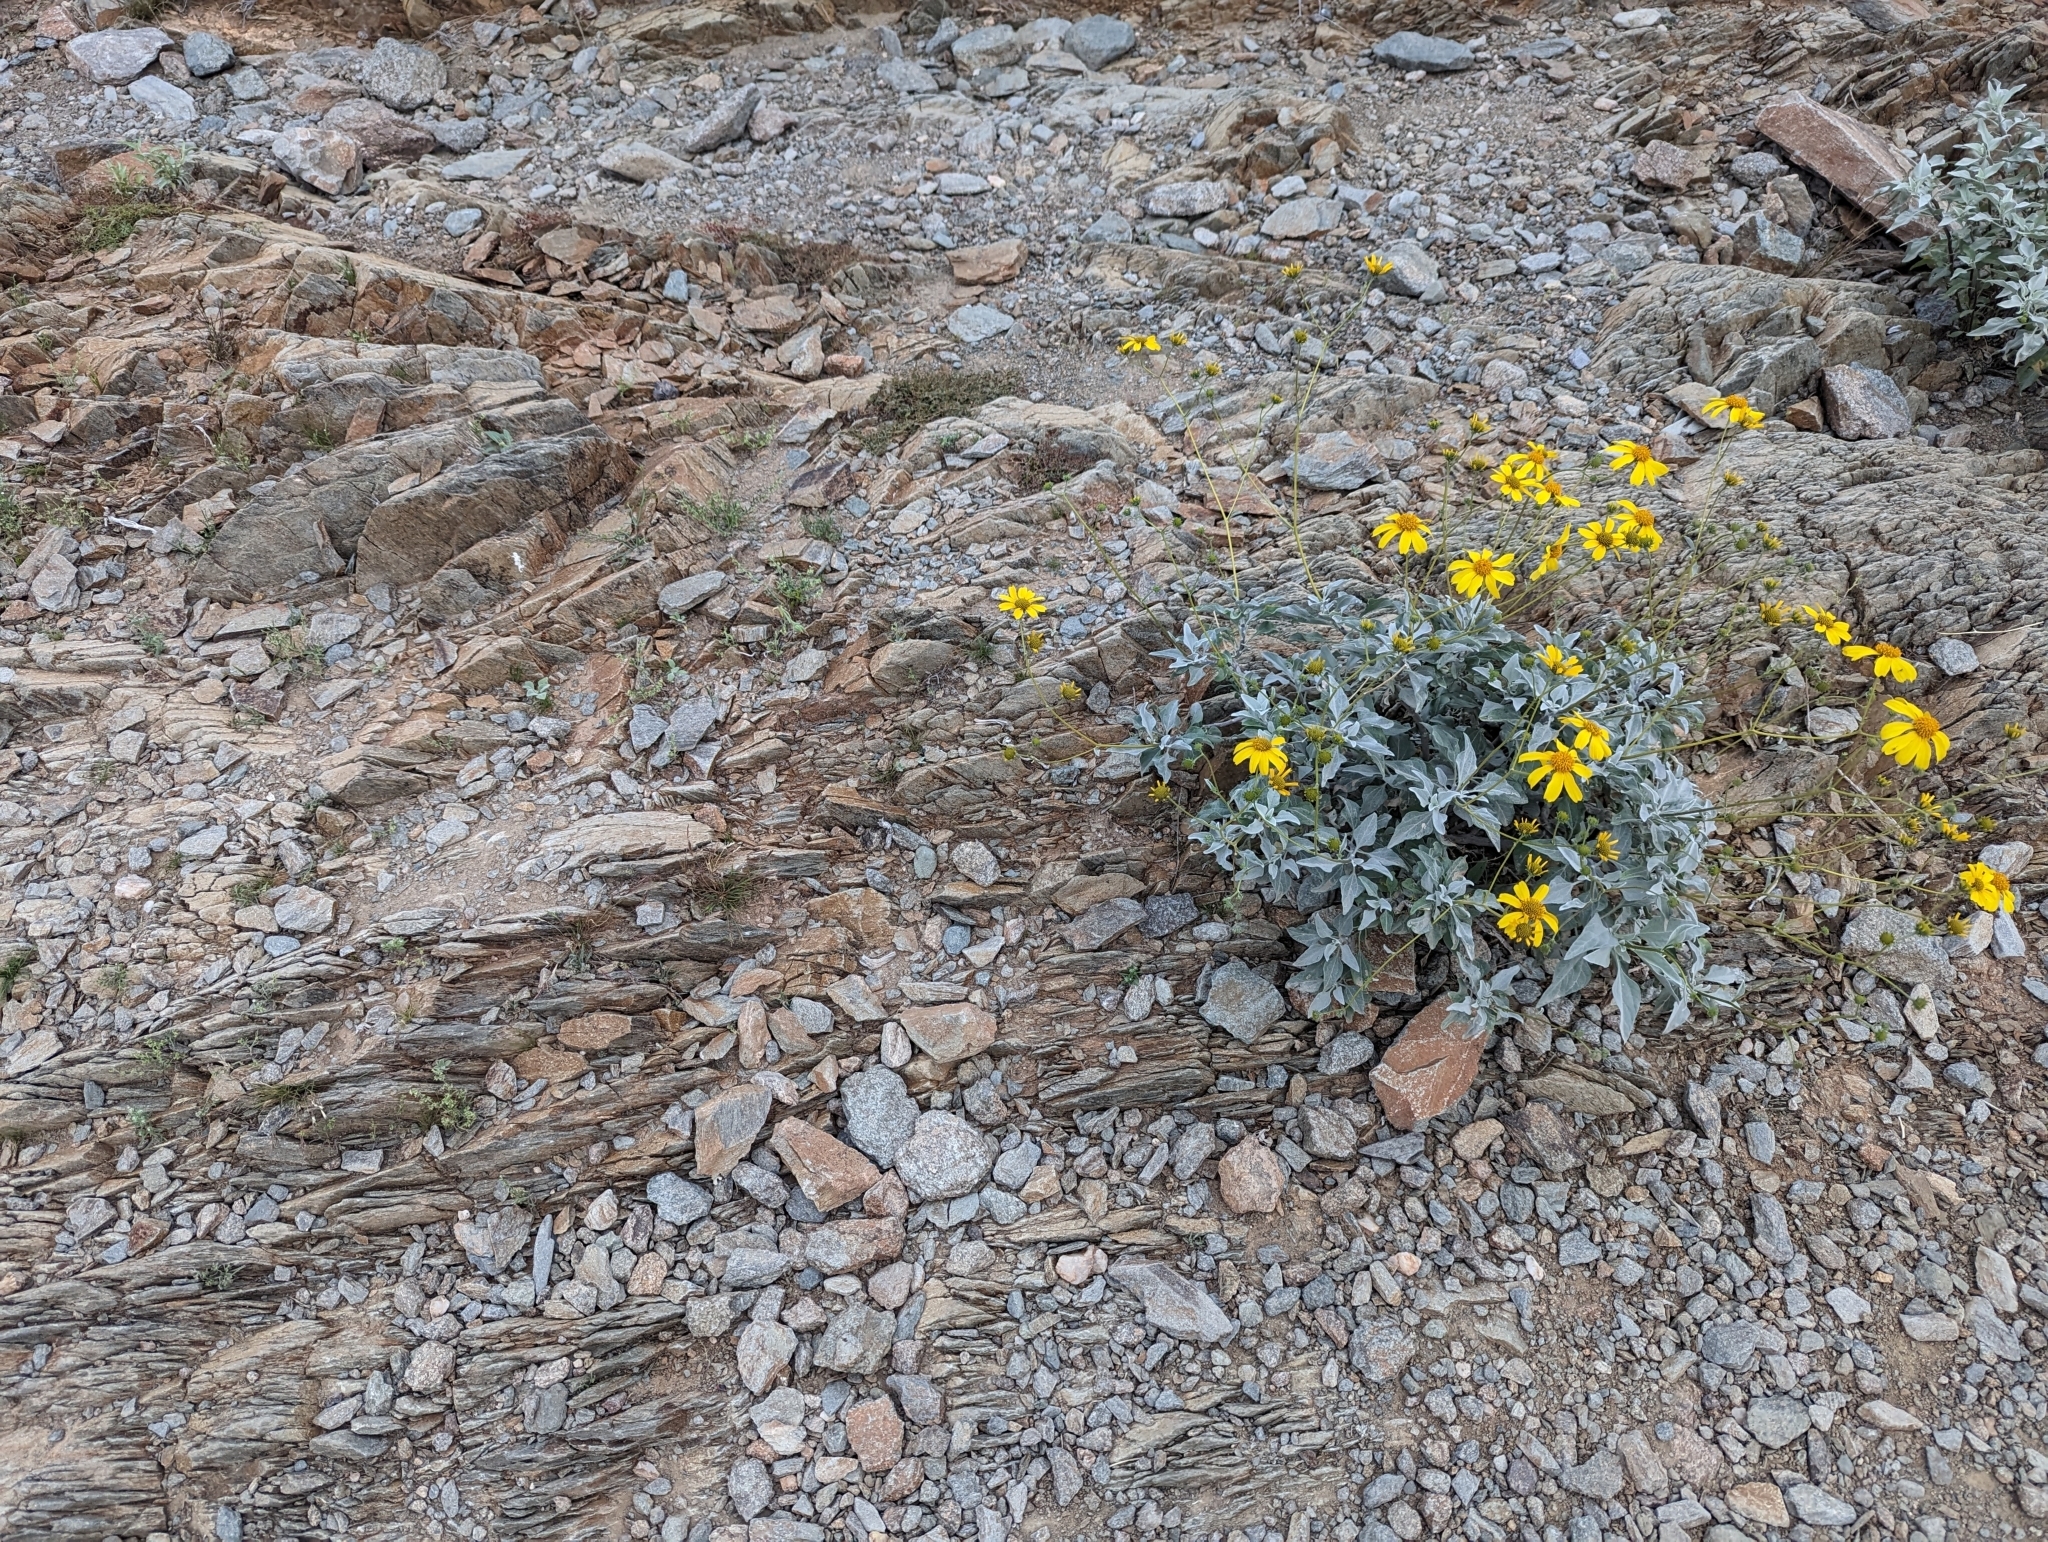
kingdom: Plantae
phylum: Tracheophyta
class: Magnoliopsida
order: Asterales
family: Asteraceae
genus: Encelia
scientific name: Encelia farinosa
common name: Brittlebush
